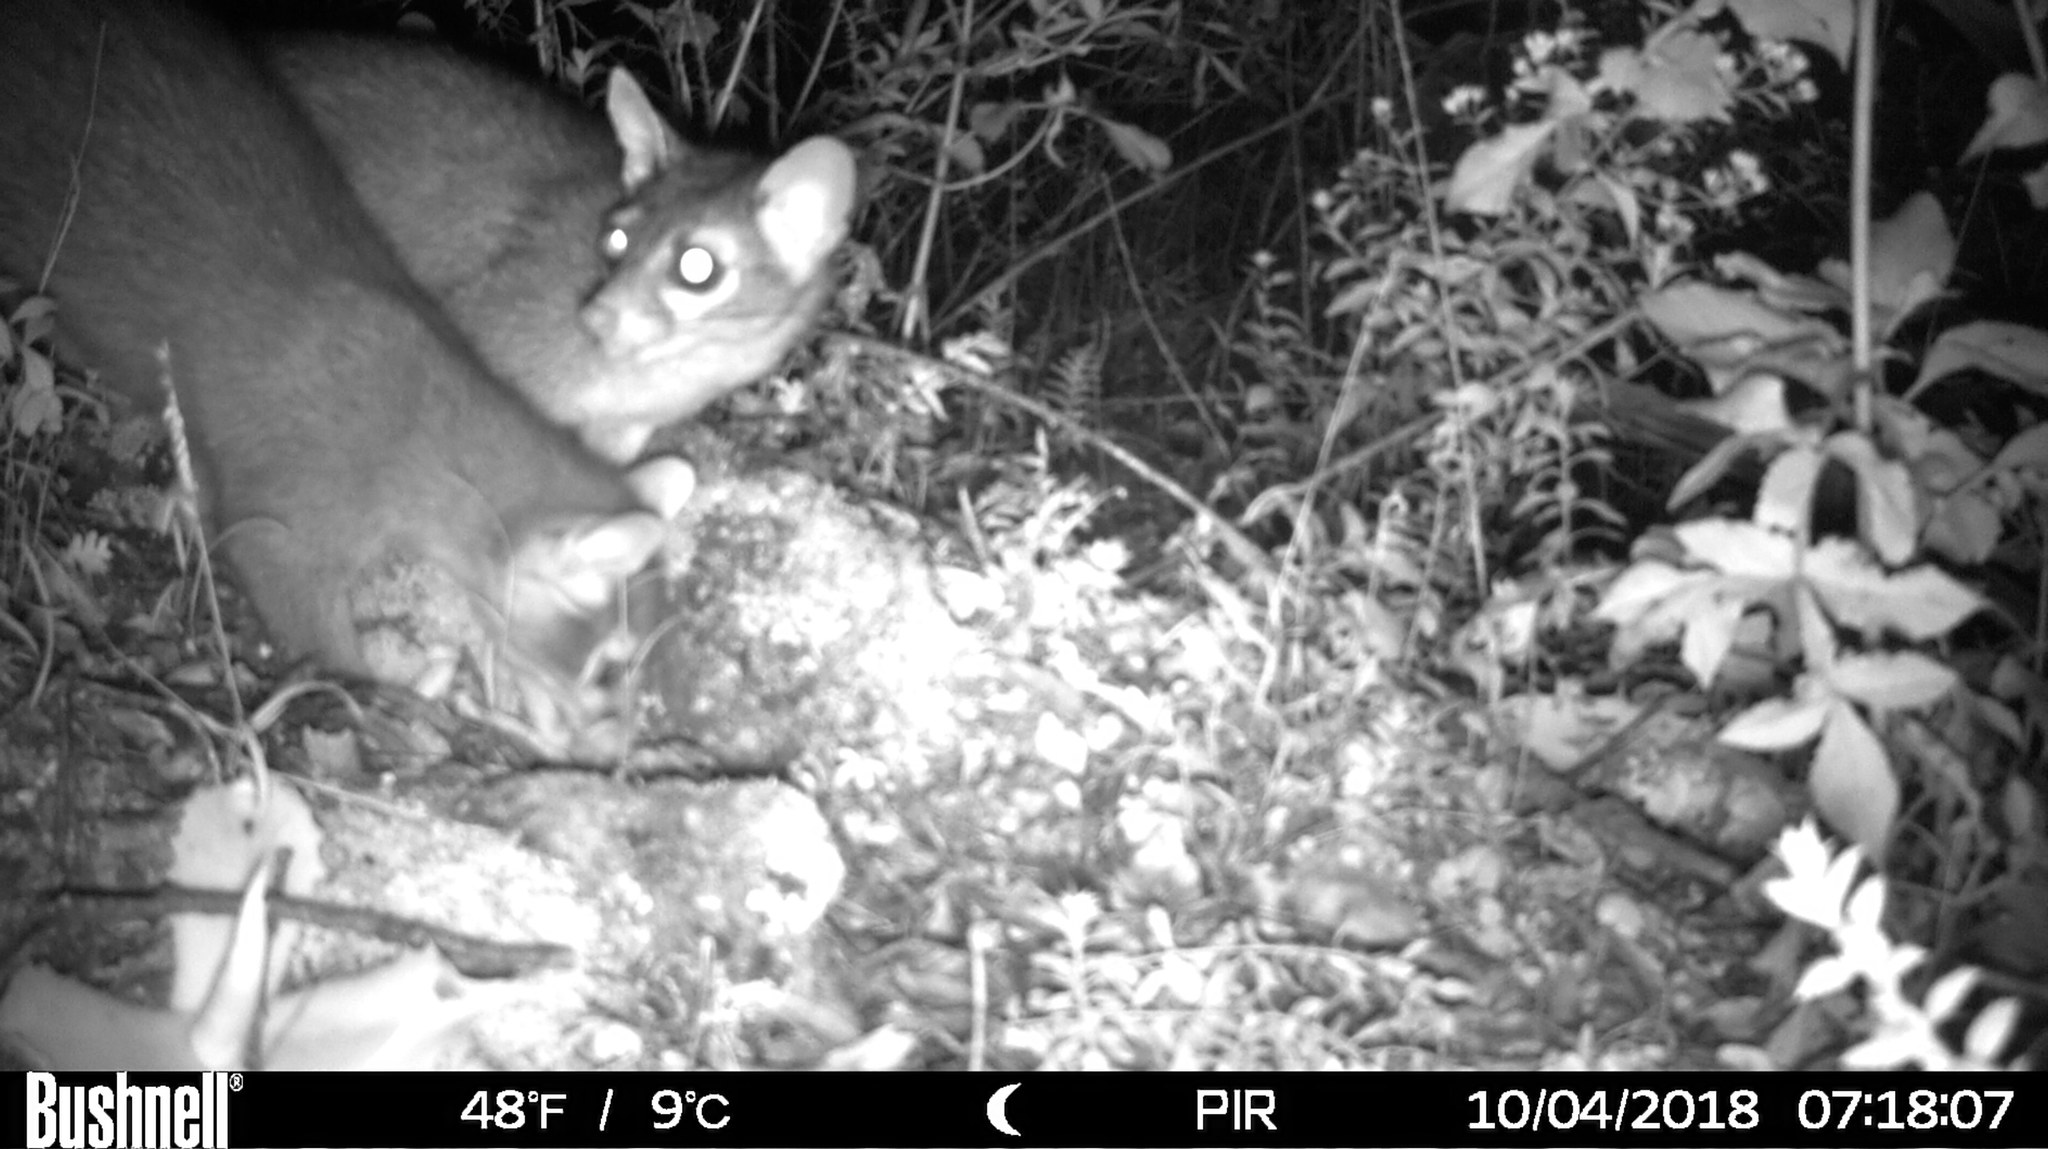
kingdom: Animalia
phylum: Chordata
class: Mammalia
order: Carnivora
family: Procyonidae
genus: Bassariscus
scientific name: Bassariscus astutus
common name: Ringtail
